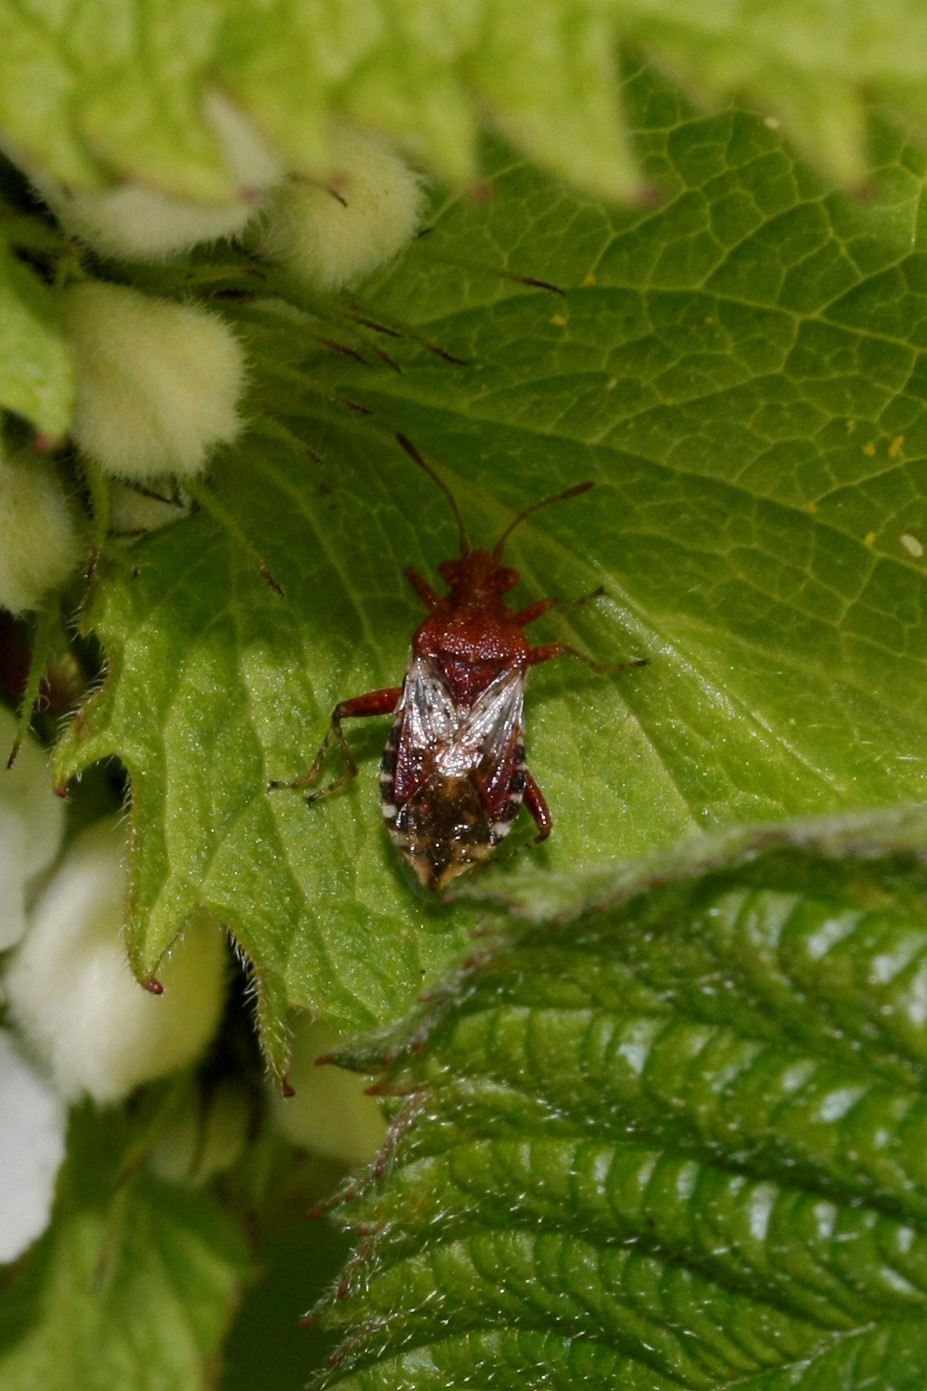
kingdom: Animalia
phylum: Arthropoda
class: Insecta
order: Hemiptera
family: Rhopalidae
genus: Rhopalus
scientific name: Rhopalus subrufus
